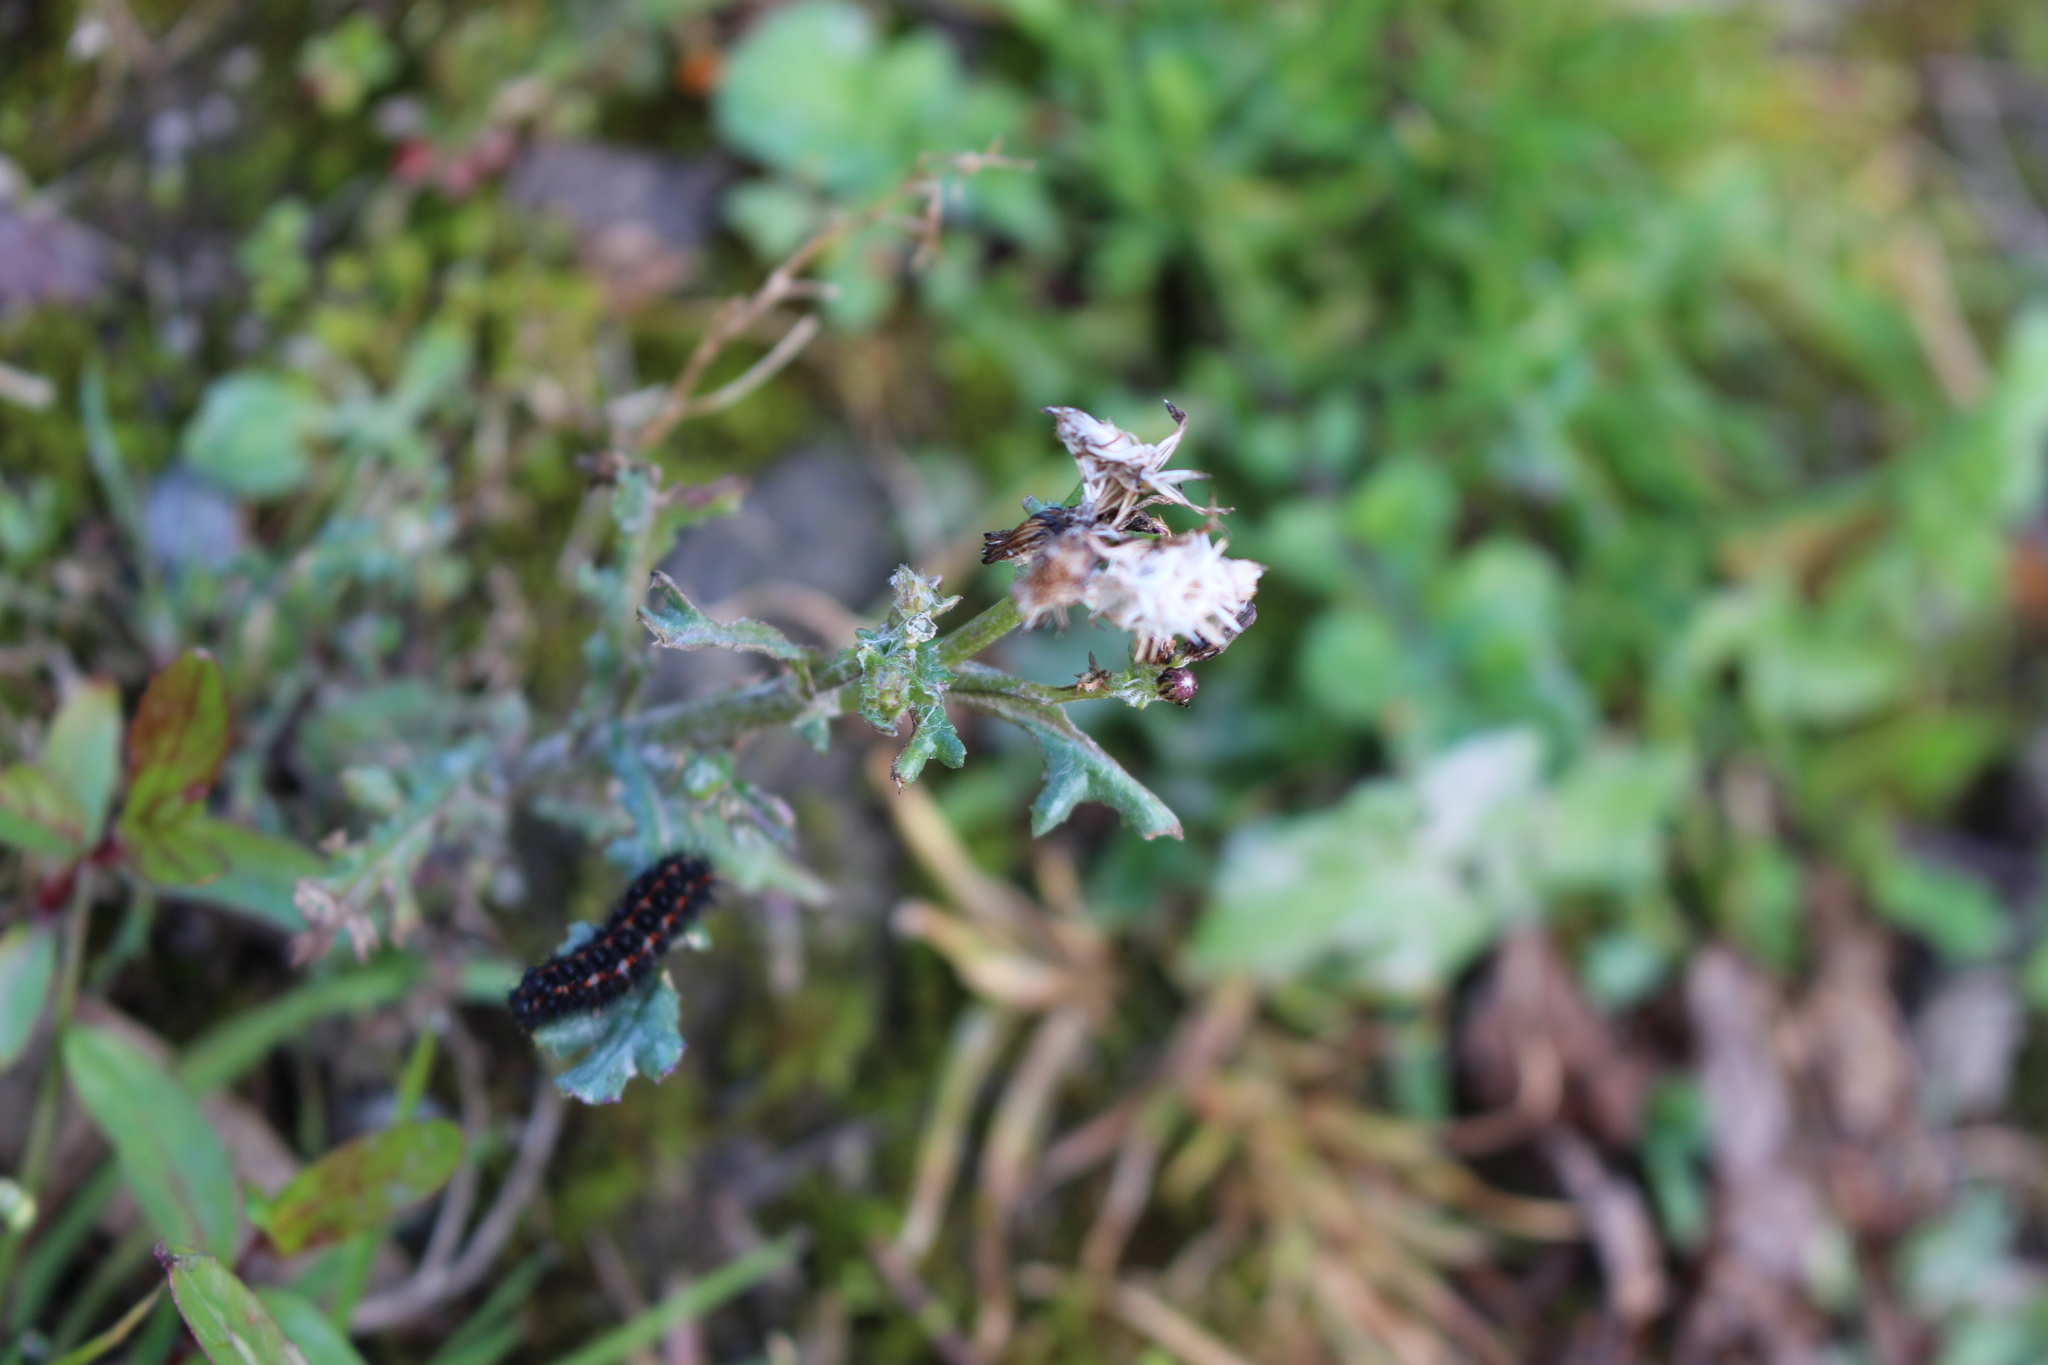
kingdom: Animalia
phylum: Arthropoda
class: Insecta
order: Lepidoptera
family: Erebidae
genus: Nyctemera
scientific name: Nyctemera annulatum
